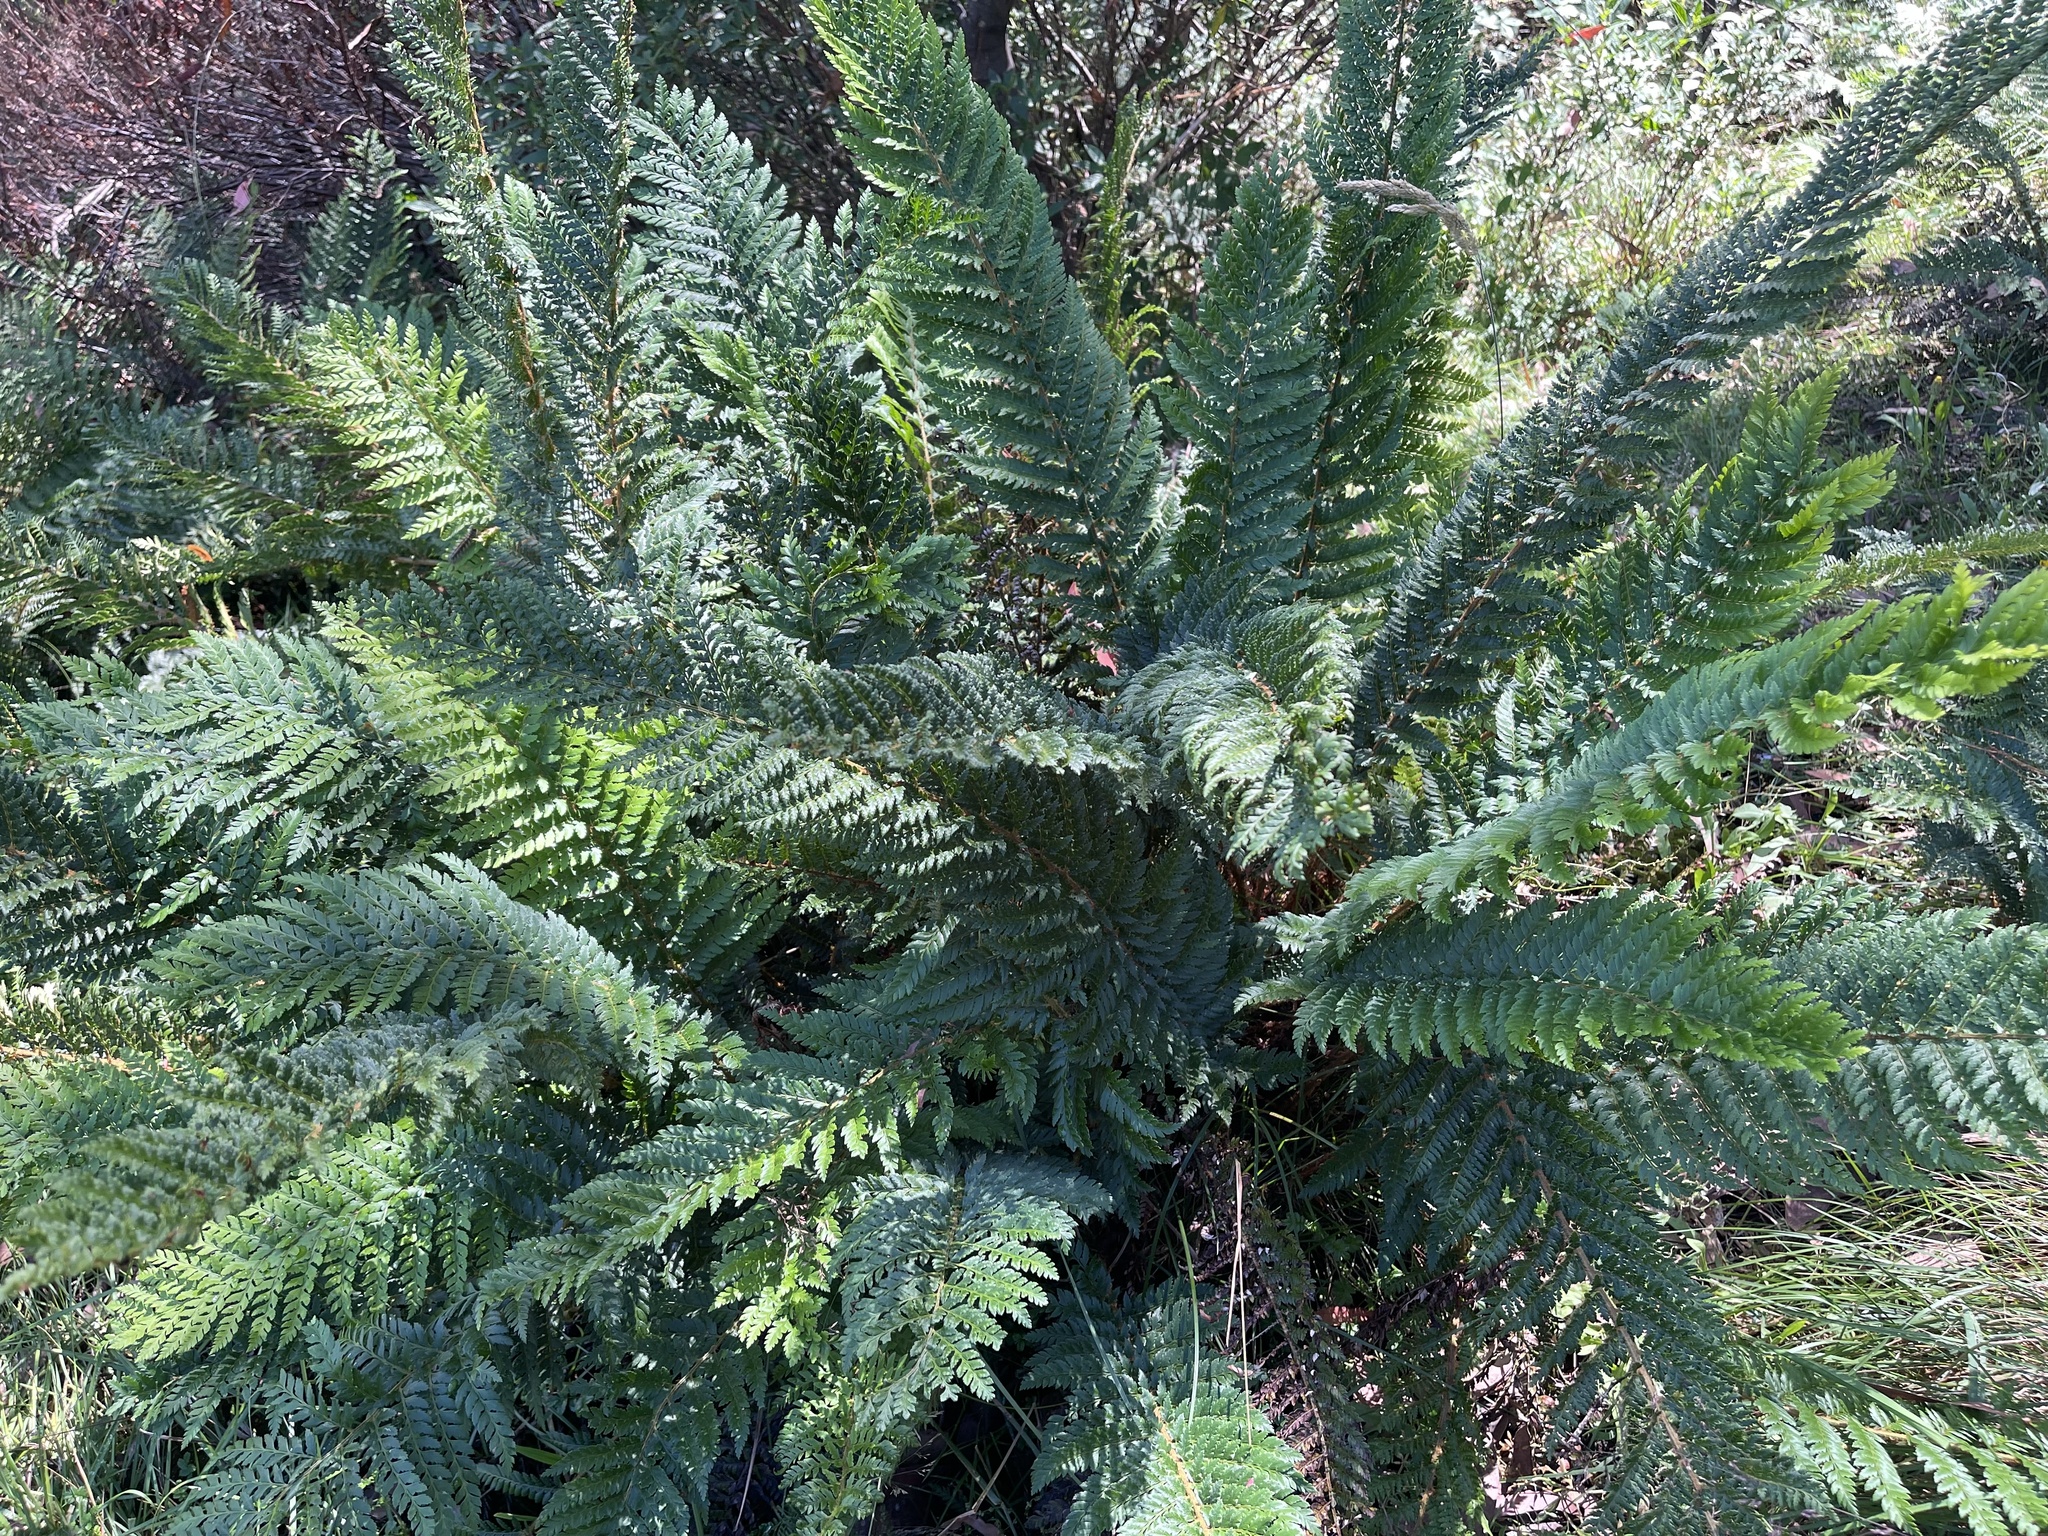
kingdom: Plantae
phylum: Tracheophyta
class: Polypodiopsida
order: Polypodiales
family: Dryopteridaceae
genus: Polystichum
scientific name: Polystichum proliferum
